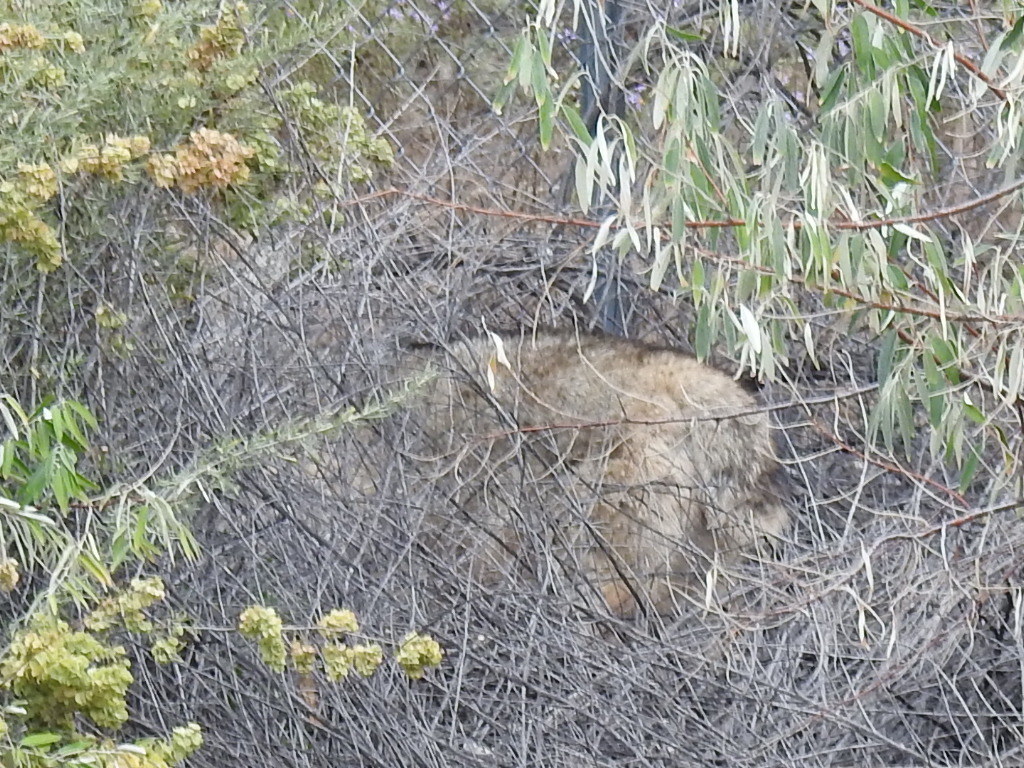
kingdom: Animalia
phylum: Chordata
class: Mammalia
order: Carnivora
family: Canidae
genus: Canis
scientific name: Canis latrans
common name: Coyote
